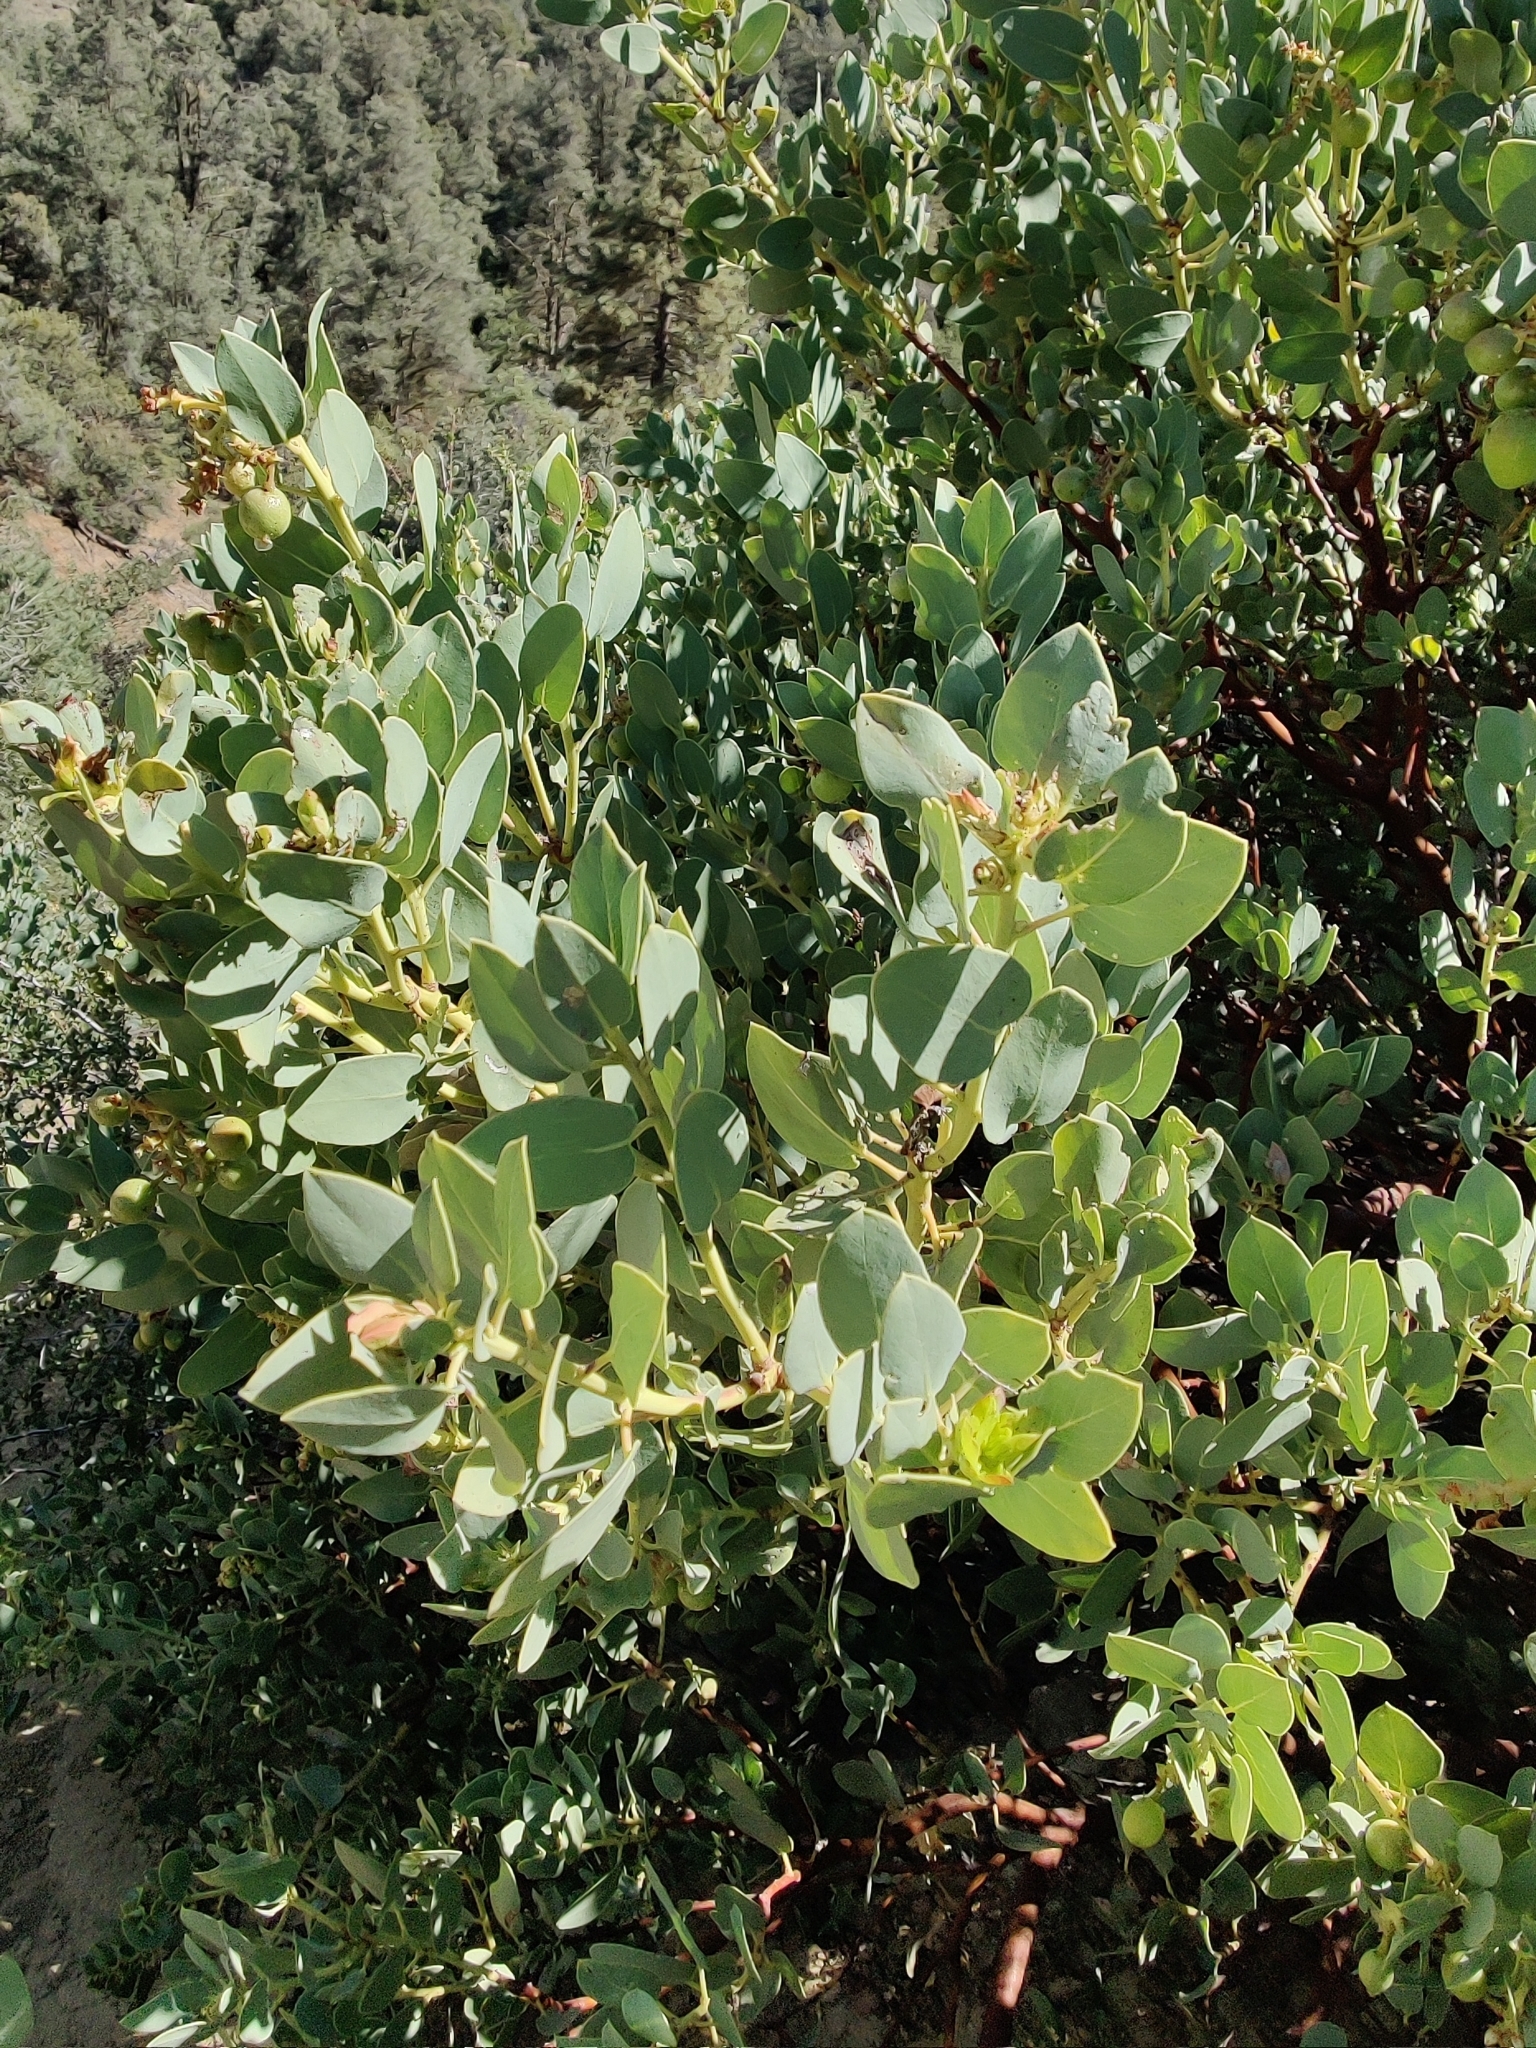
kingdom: Plantae
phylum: Tracheophyta
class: Magnoliopsida
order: Ericales
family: Ericaceae
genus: Arctostaphylos
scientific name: Arctostaphylos glauca
